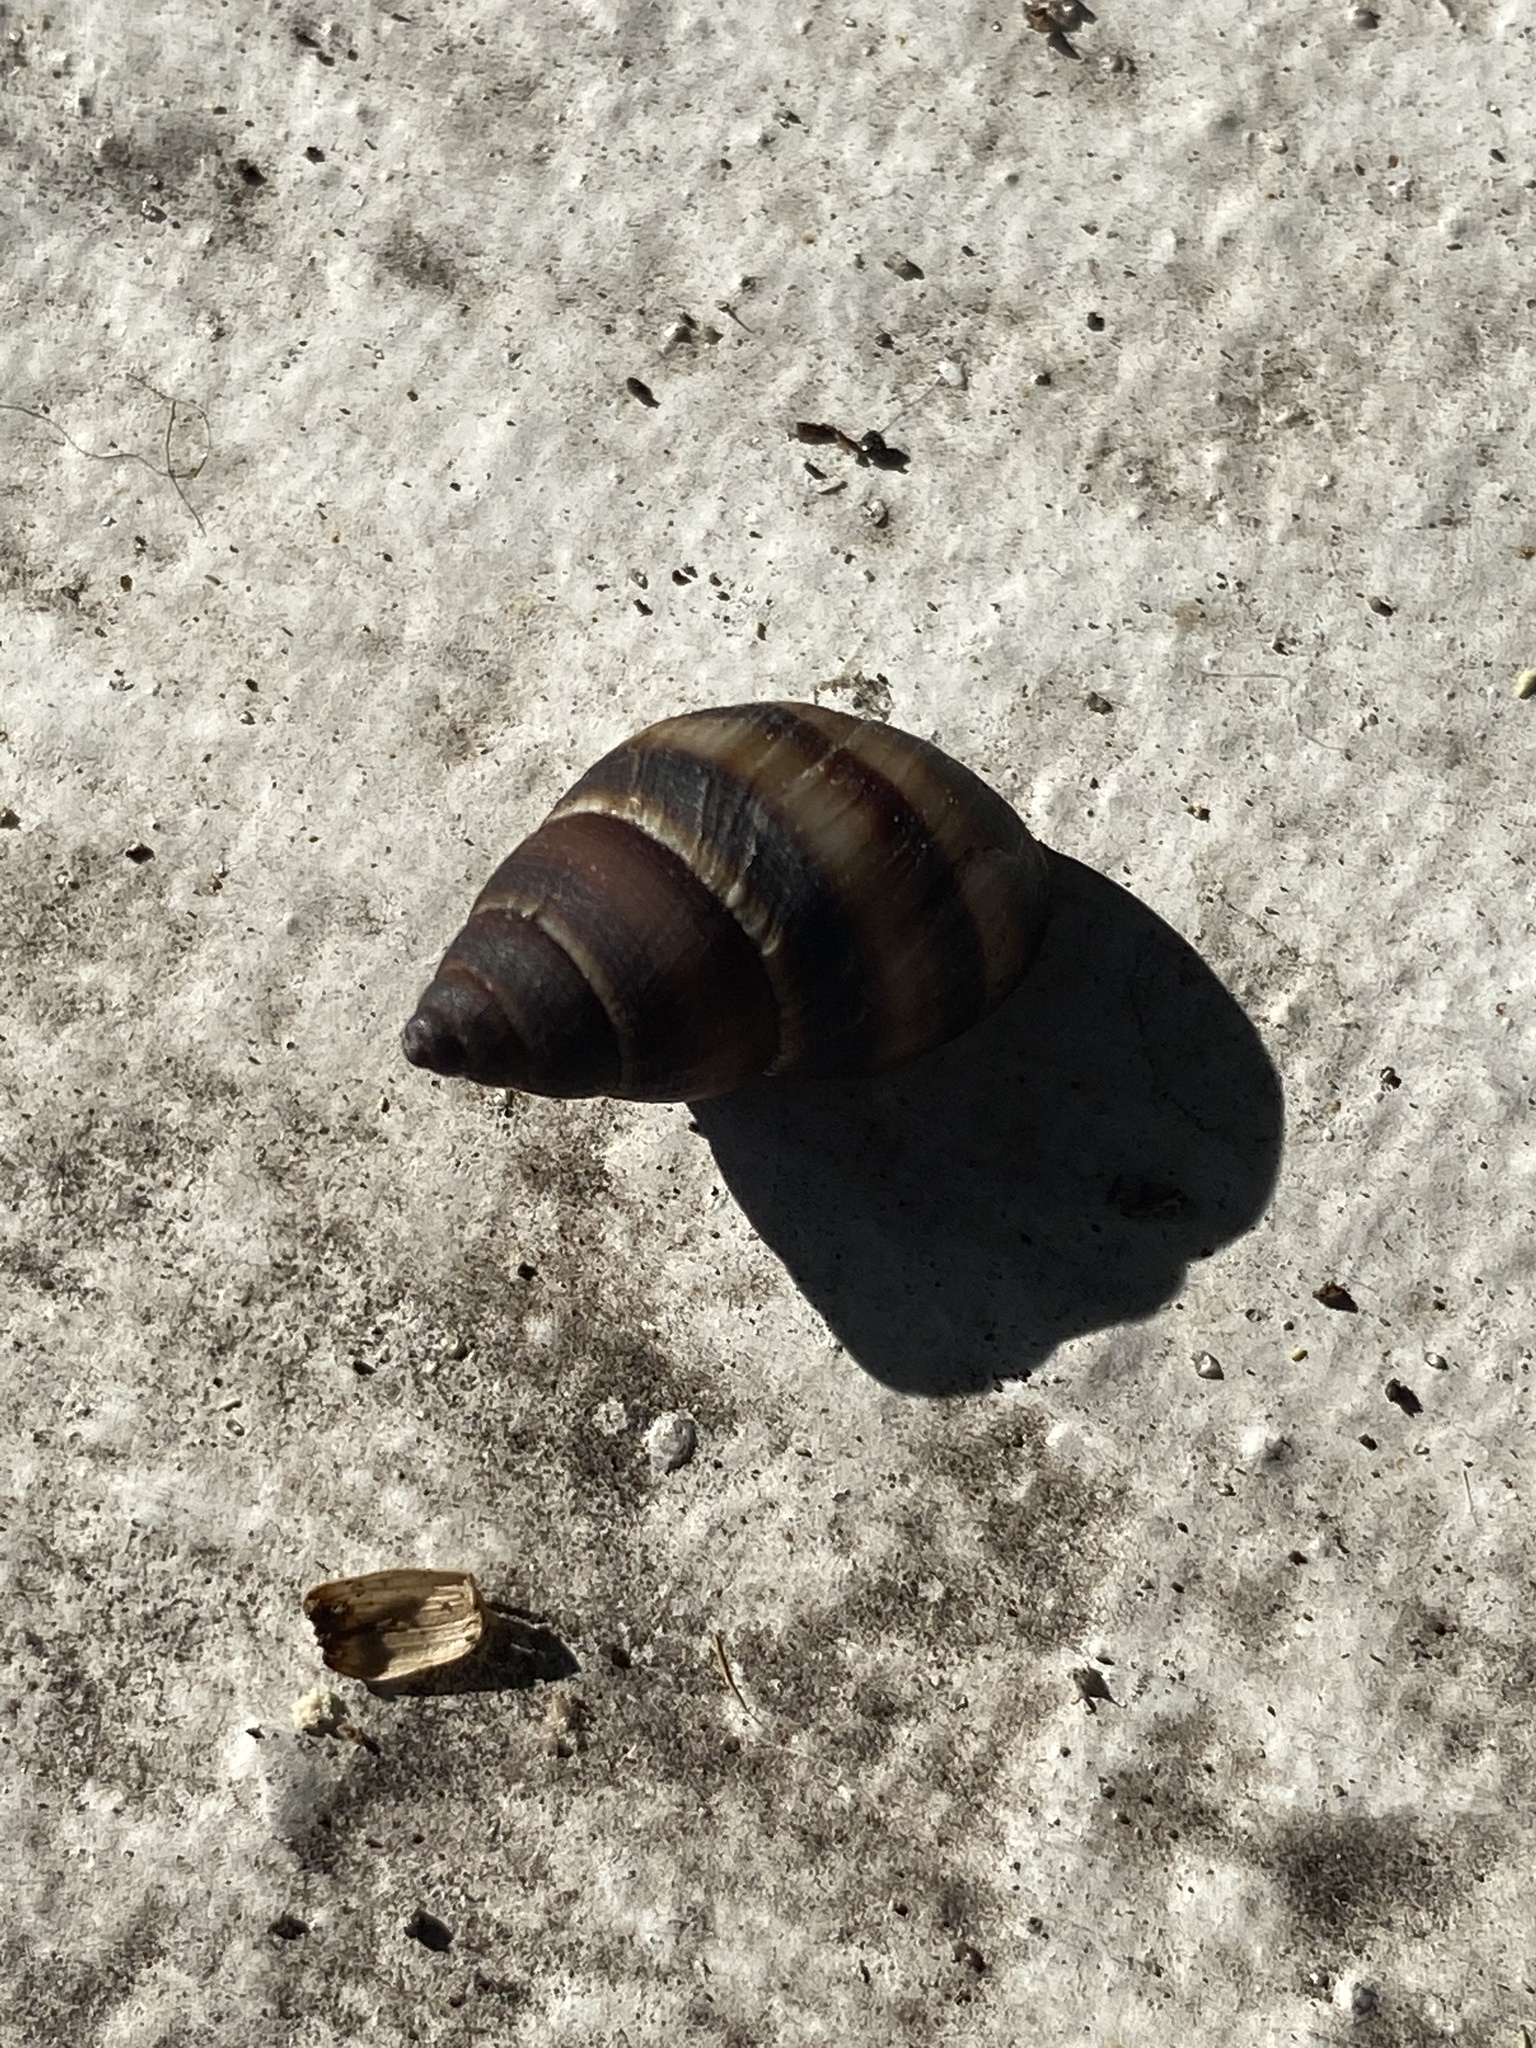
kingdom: Animalia
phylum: Mollusca
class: Gastropoda
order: Stylommatophora
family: Bulimulidae
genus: Bulimulus
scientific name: Bulimulus guadalupensis
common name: West indian bulimulus
